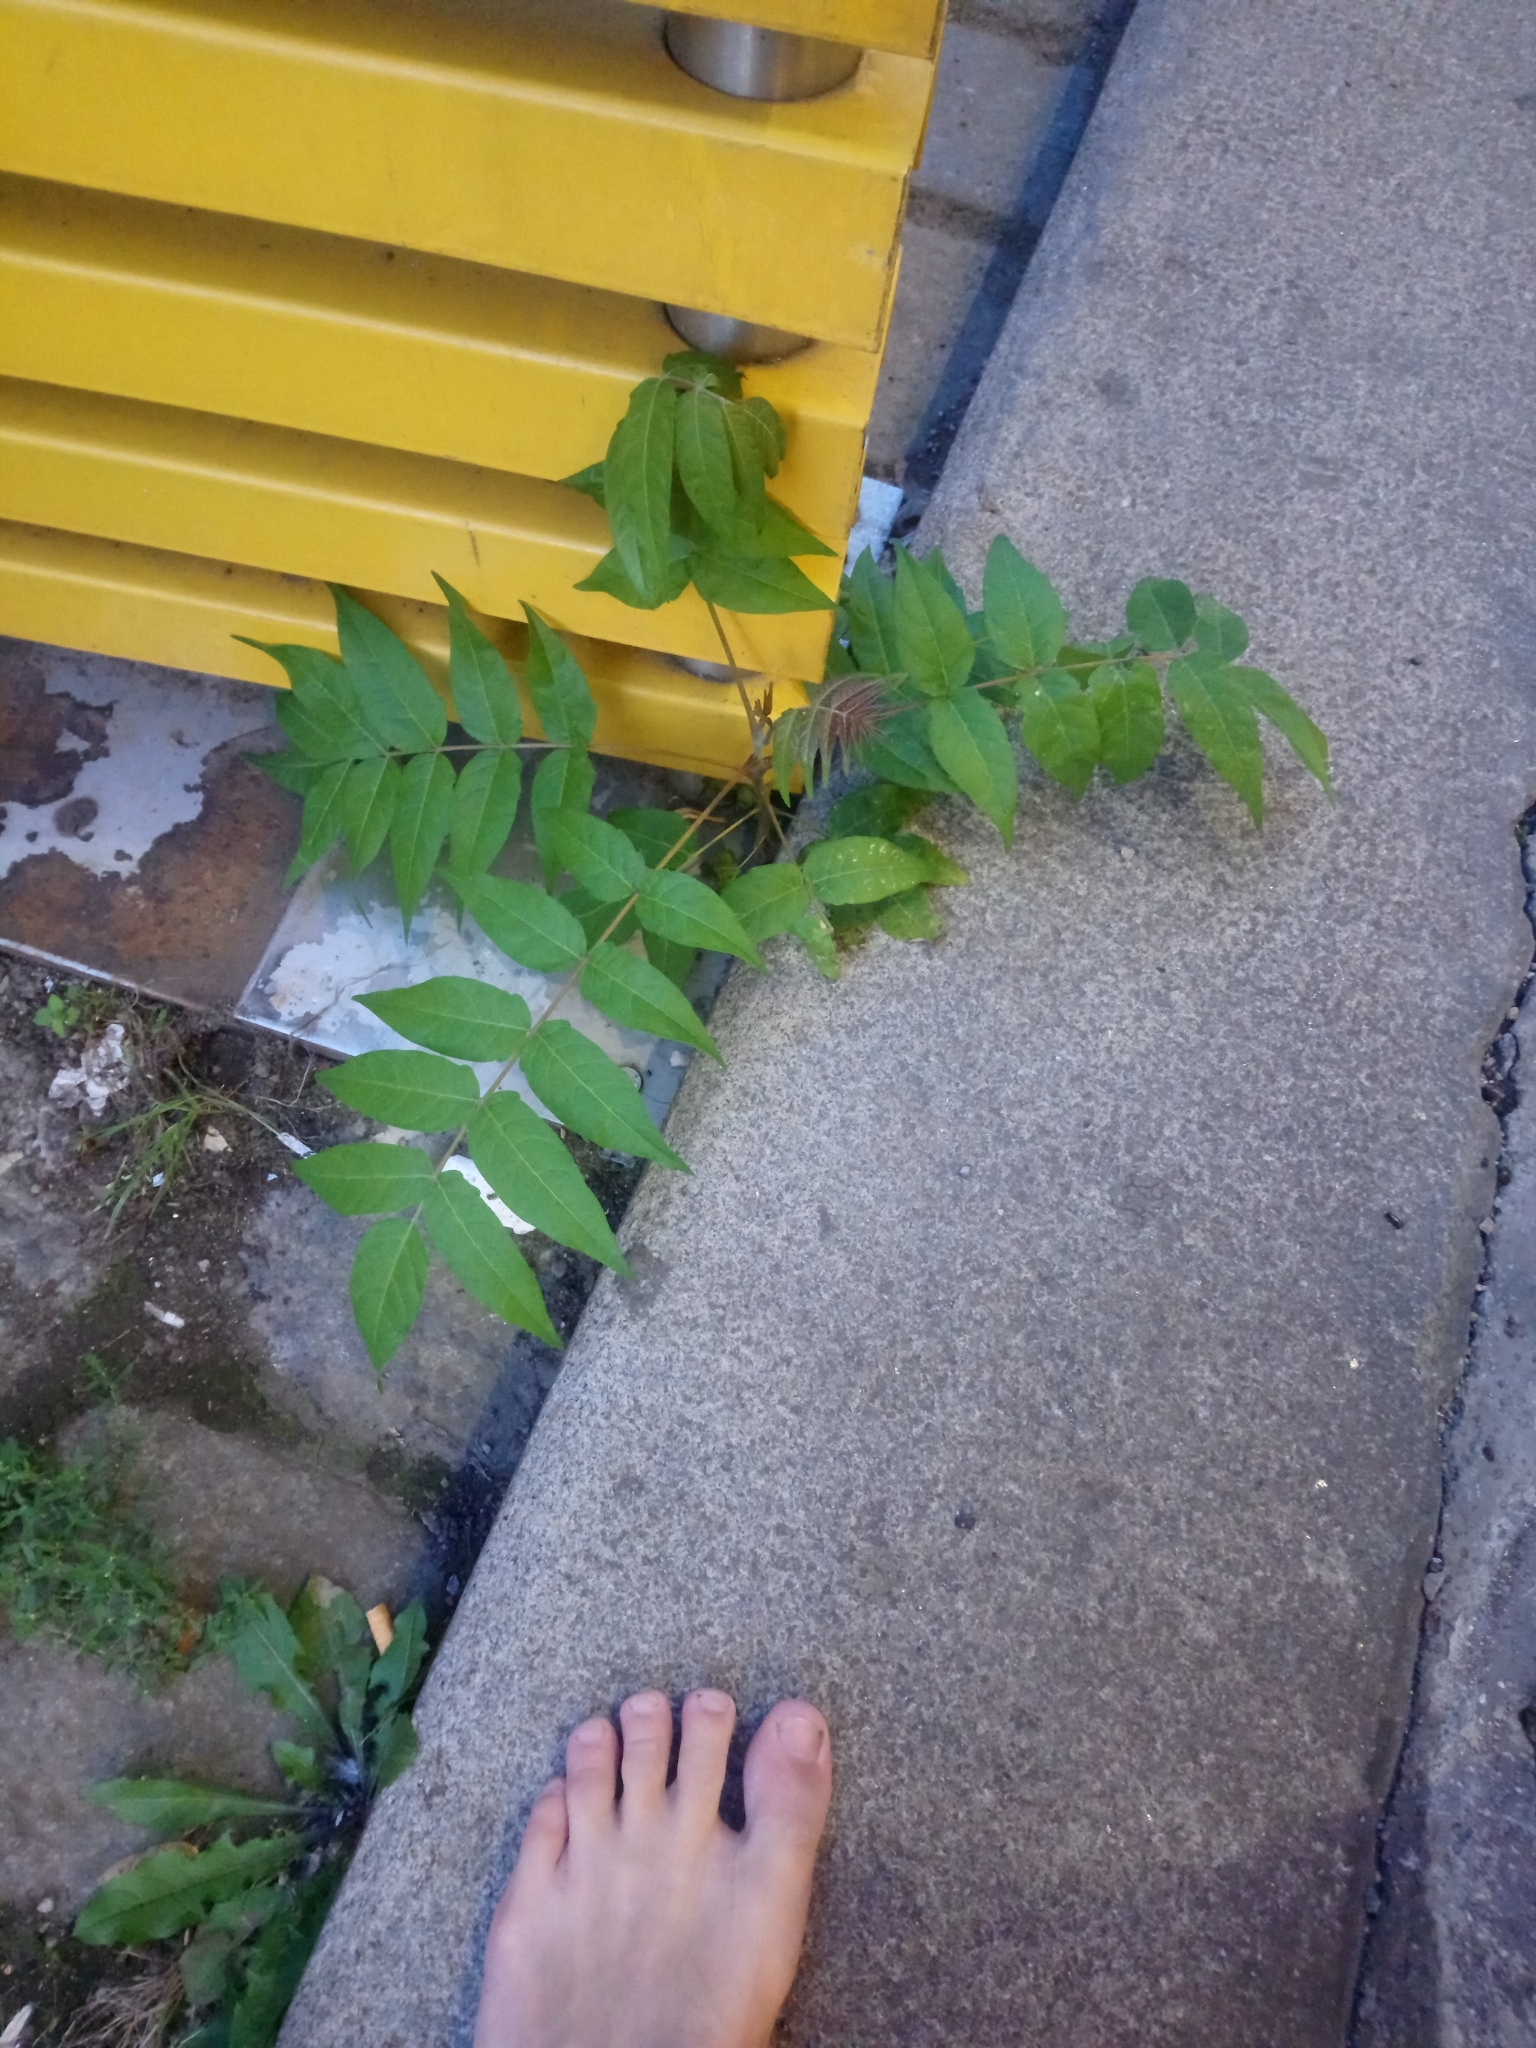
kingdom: Plantae
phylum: Tracheophyta
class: Magnoliopsida
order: Sapindales
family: Simaroubaceae
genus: Ailanthus
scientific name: Ailanthus altissima
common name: Tree-of-heaven
